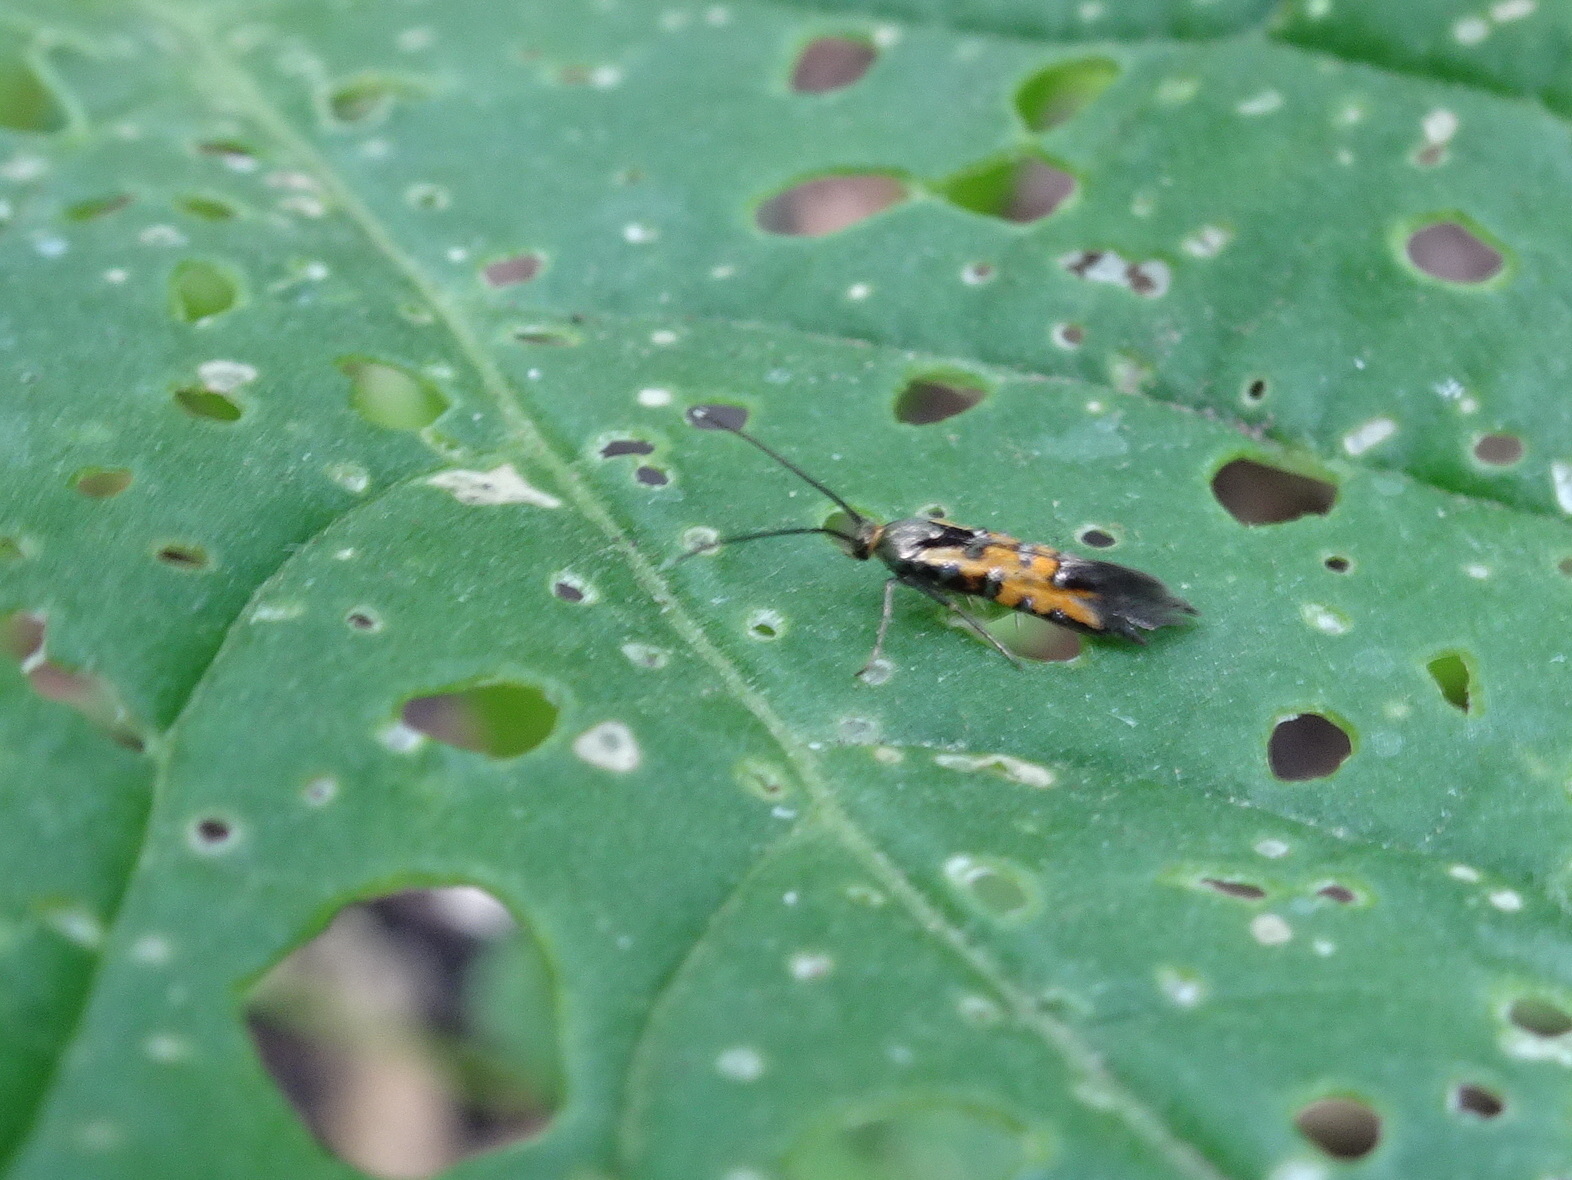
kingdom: Animalia
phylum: Arthropoda
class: Insecta
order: Lepidoptera
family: Heliodinidae
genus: Neoheliodines
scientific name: Neoheliodines nyctaginella
